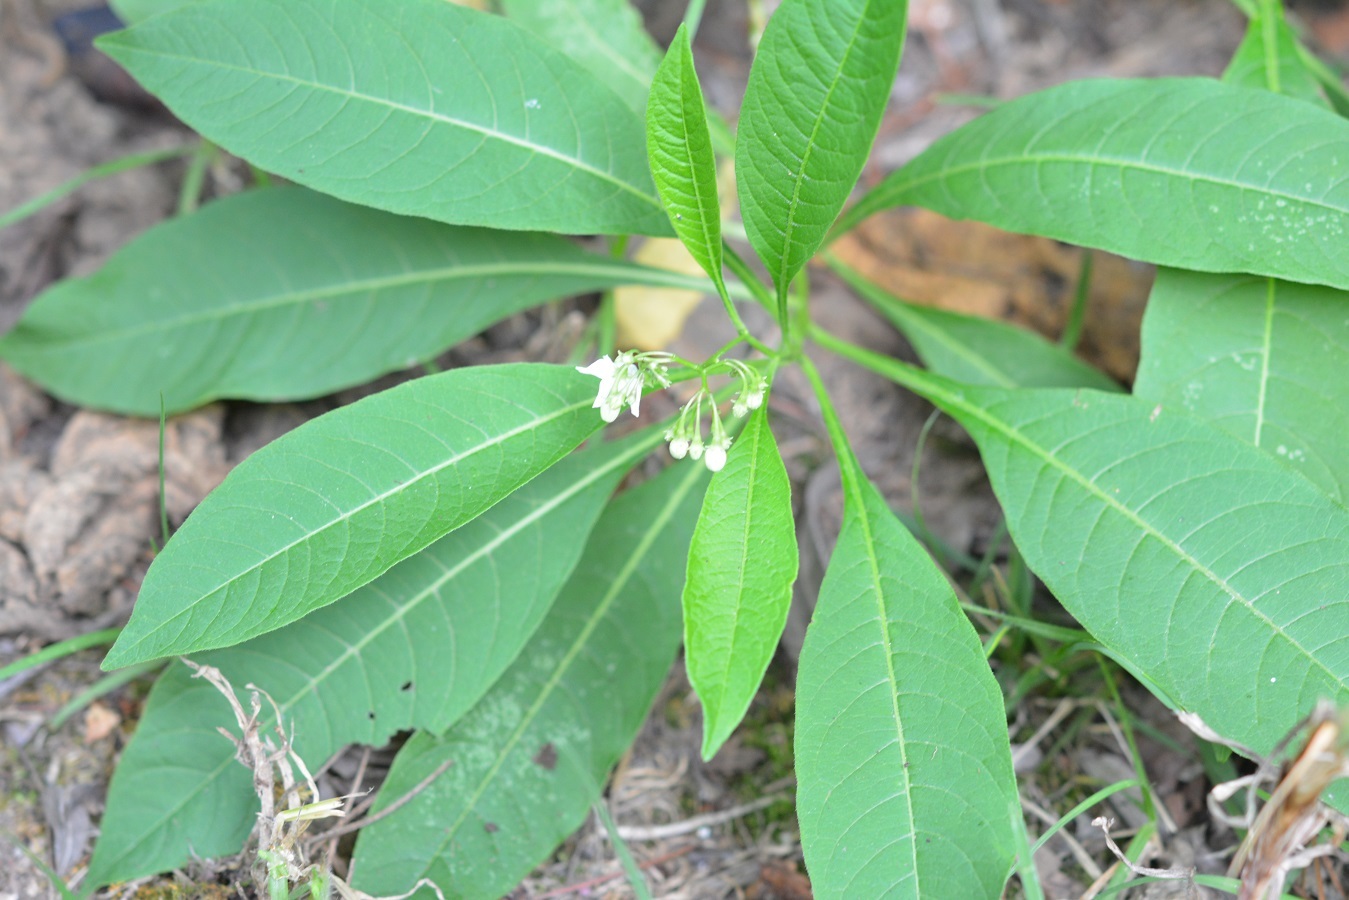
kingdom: Plantae
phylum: Tracheophyta
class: Magnoliopsida
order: Solanales
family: Solanaceae
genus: Solanum
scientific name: Solanum pubigerum
